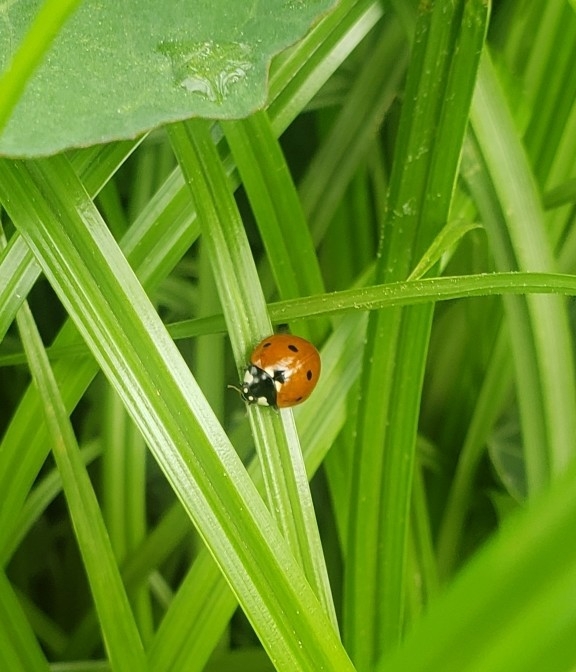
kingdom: Animalia
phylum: Arthropoda
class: Insecta
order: Coleoptera
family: Coccinellidae
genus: Coccinella
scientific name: Coccinella septempunctata
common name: Sevenspotted lady beetle
